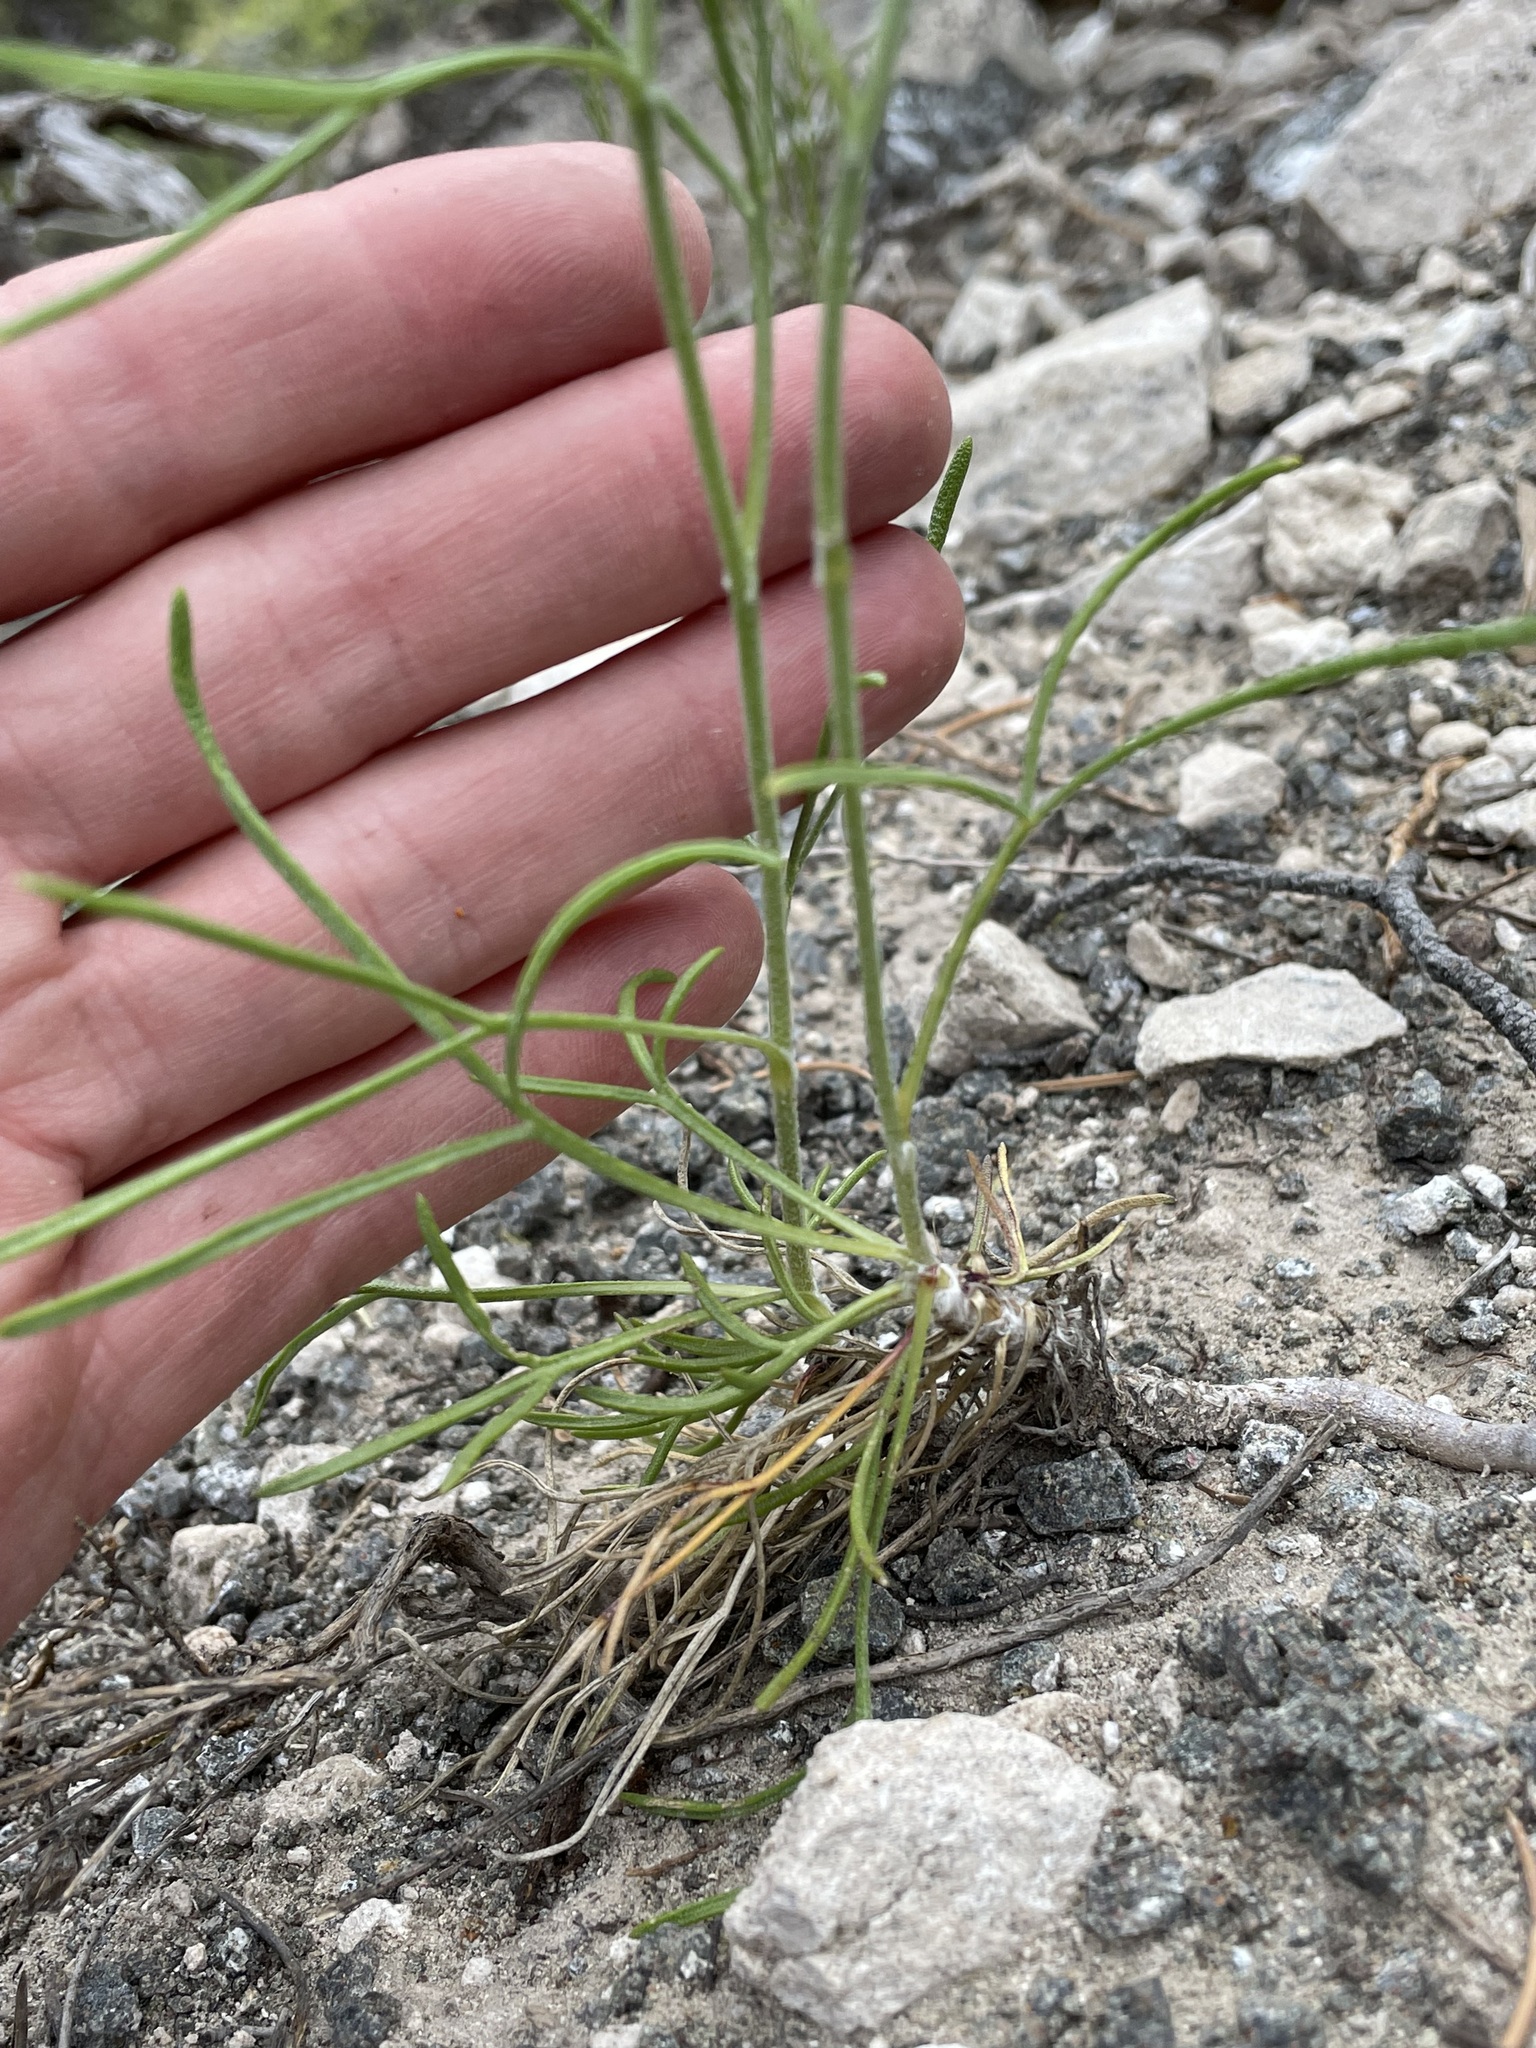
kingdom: Plantae
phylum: Tracheophyta
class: Magnoliopsida
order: Asterales
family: Asteraceae
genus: Hymenoxys
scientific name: Hymenoxys richardsonii
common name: Pingue rubberweed
